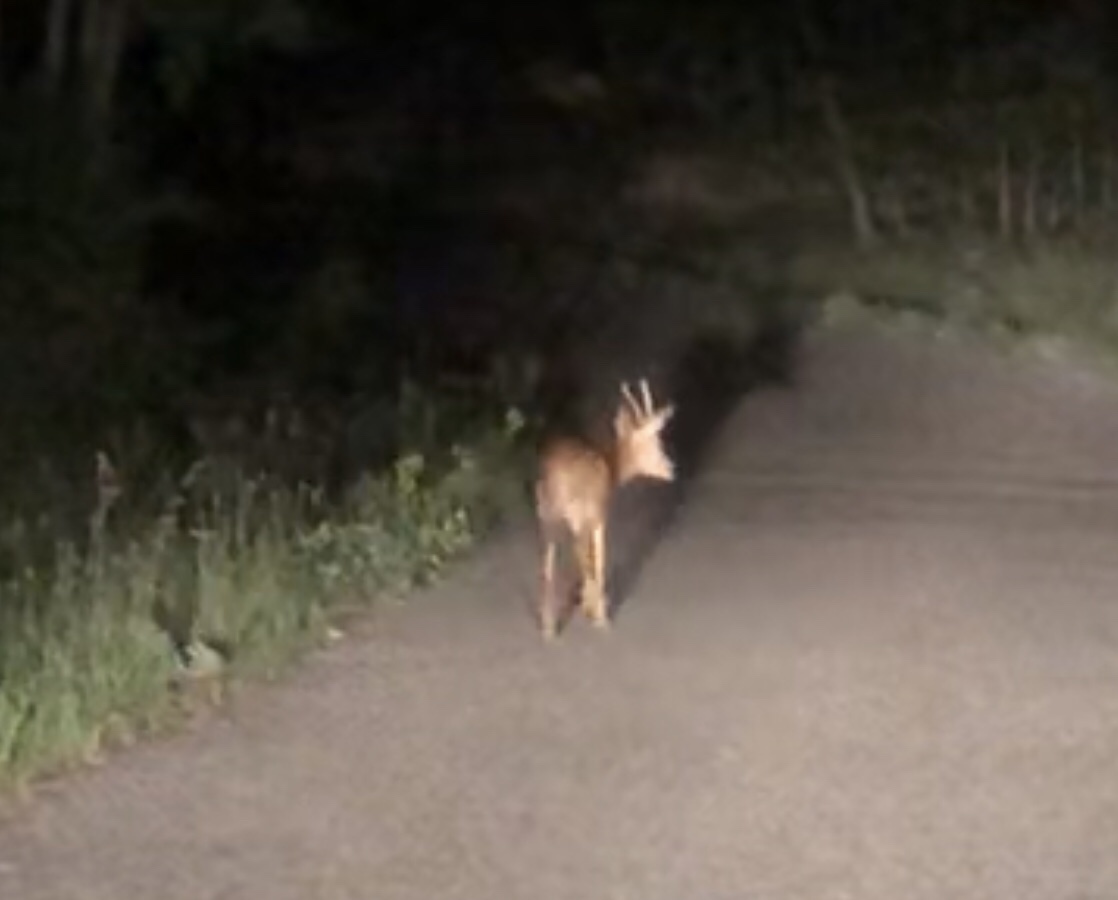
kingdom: Animalia
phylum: Chordata
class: Mammalia
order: Artiodactyla
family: Cervidae
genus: Capreolus
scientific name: Capreolus capreolus
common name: Western roe deer
